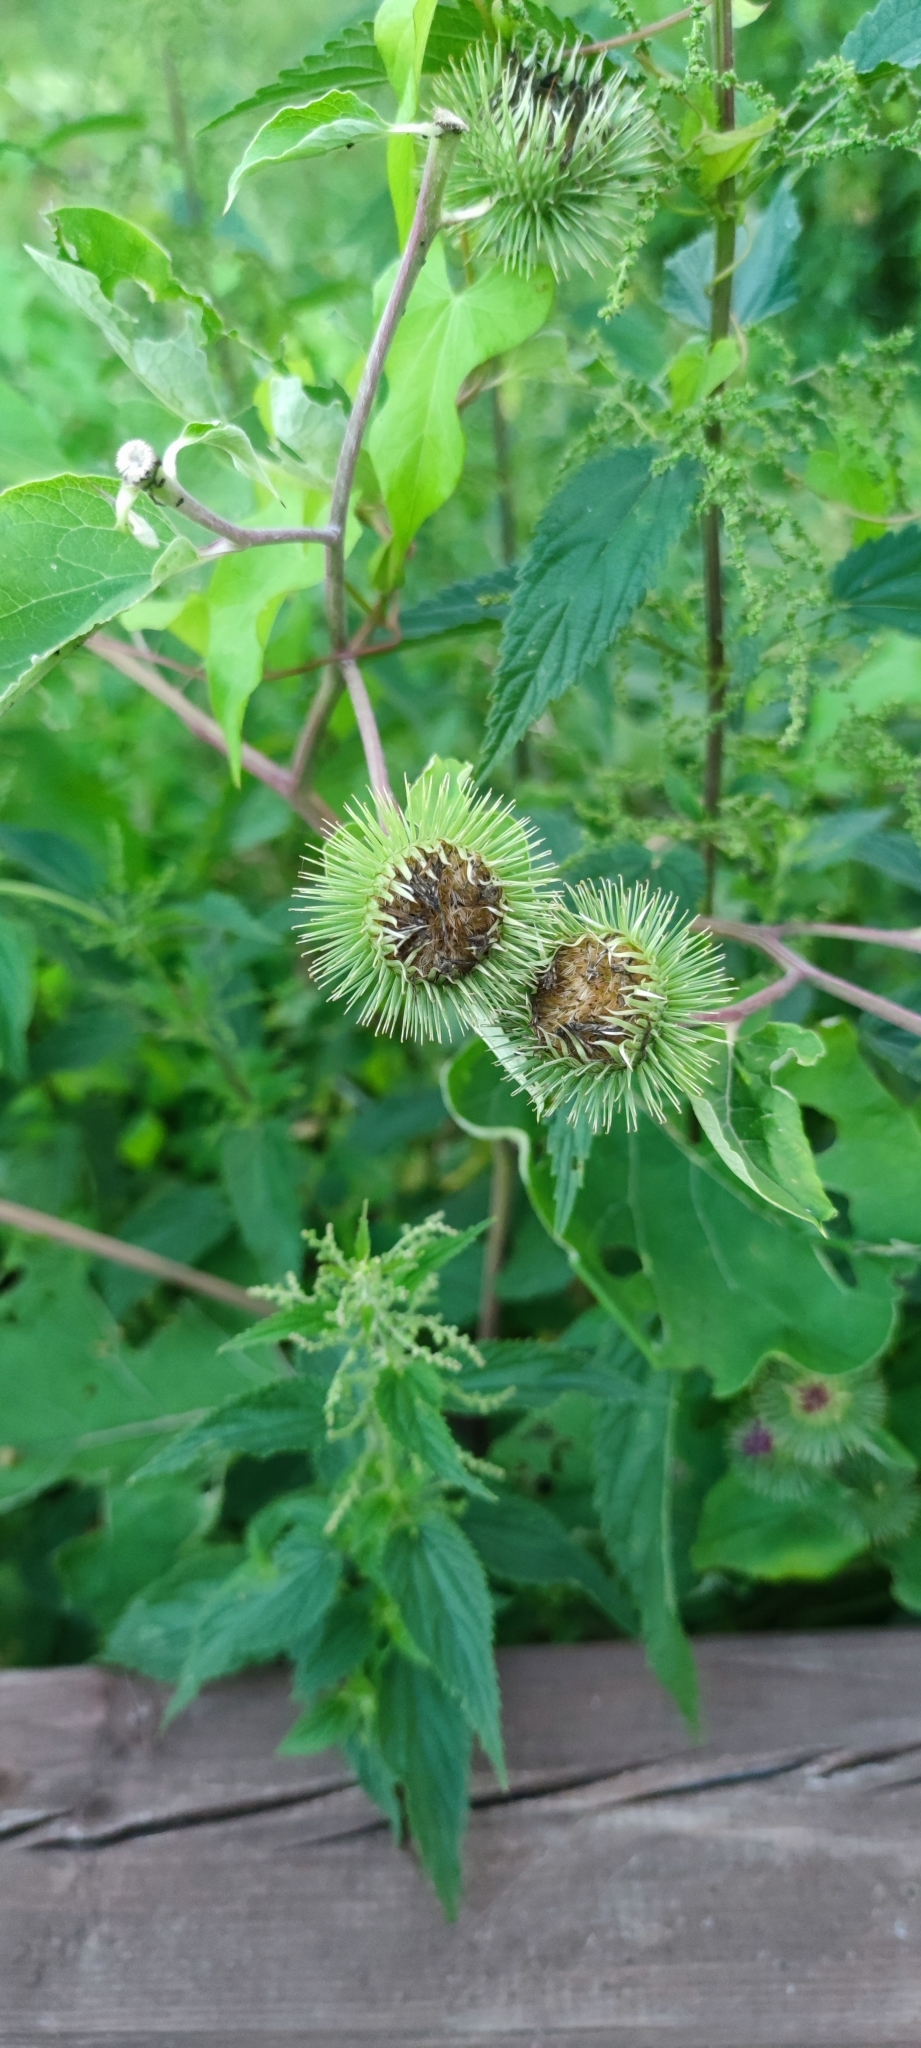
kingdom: Plantae
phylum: Tracheophyta
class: Magnoliopsida
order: Asterales
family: Asteraceae
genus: Arctium
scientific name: Arctium lappa
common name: Greater burdock
